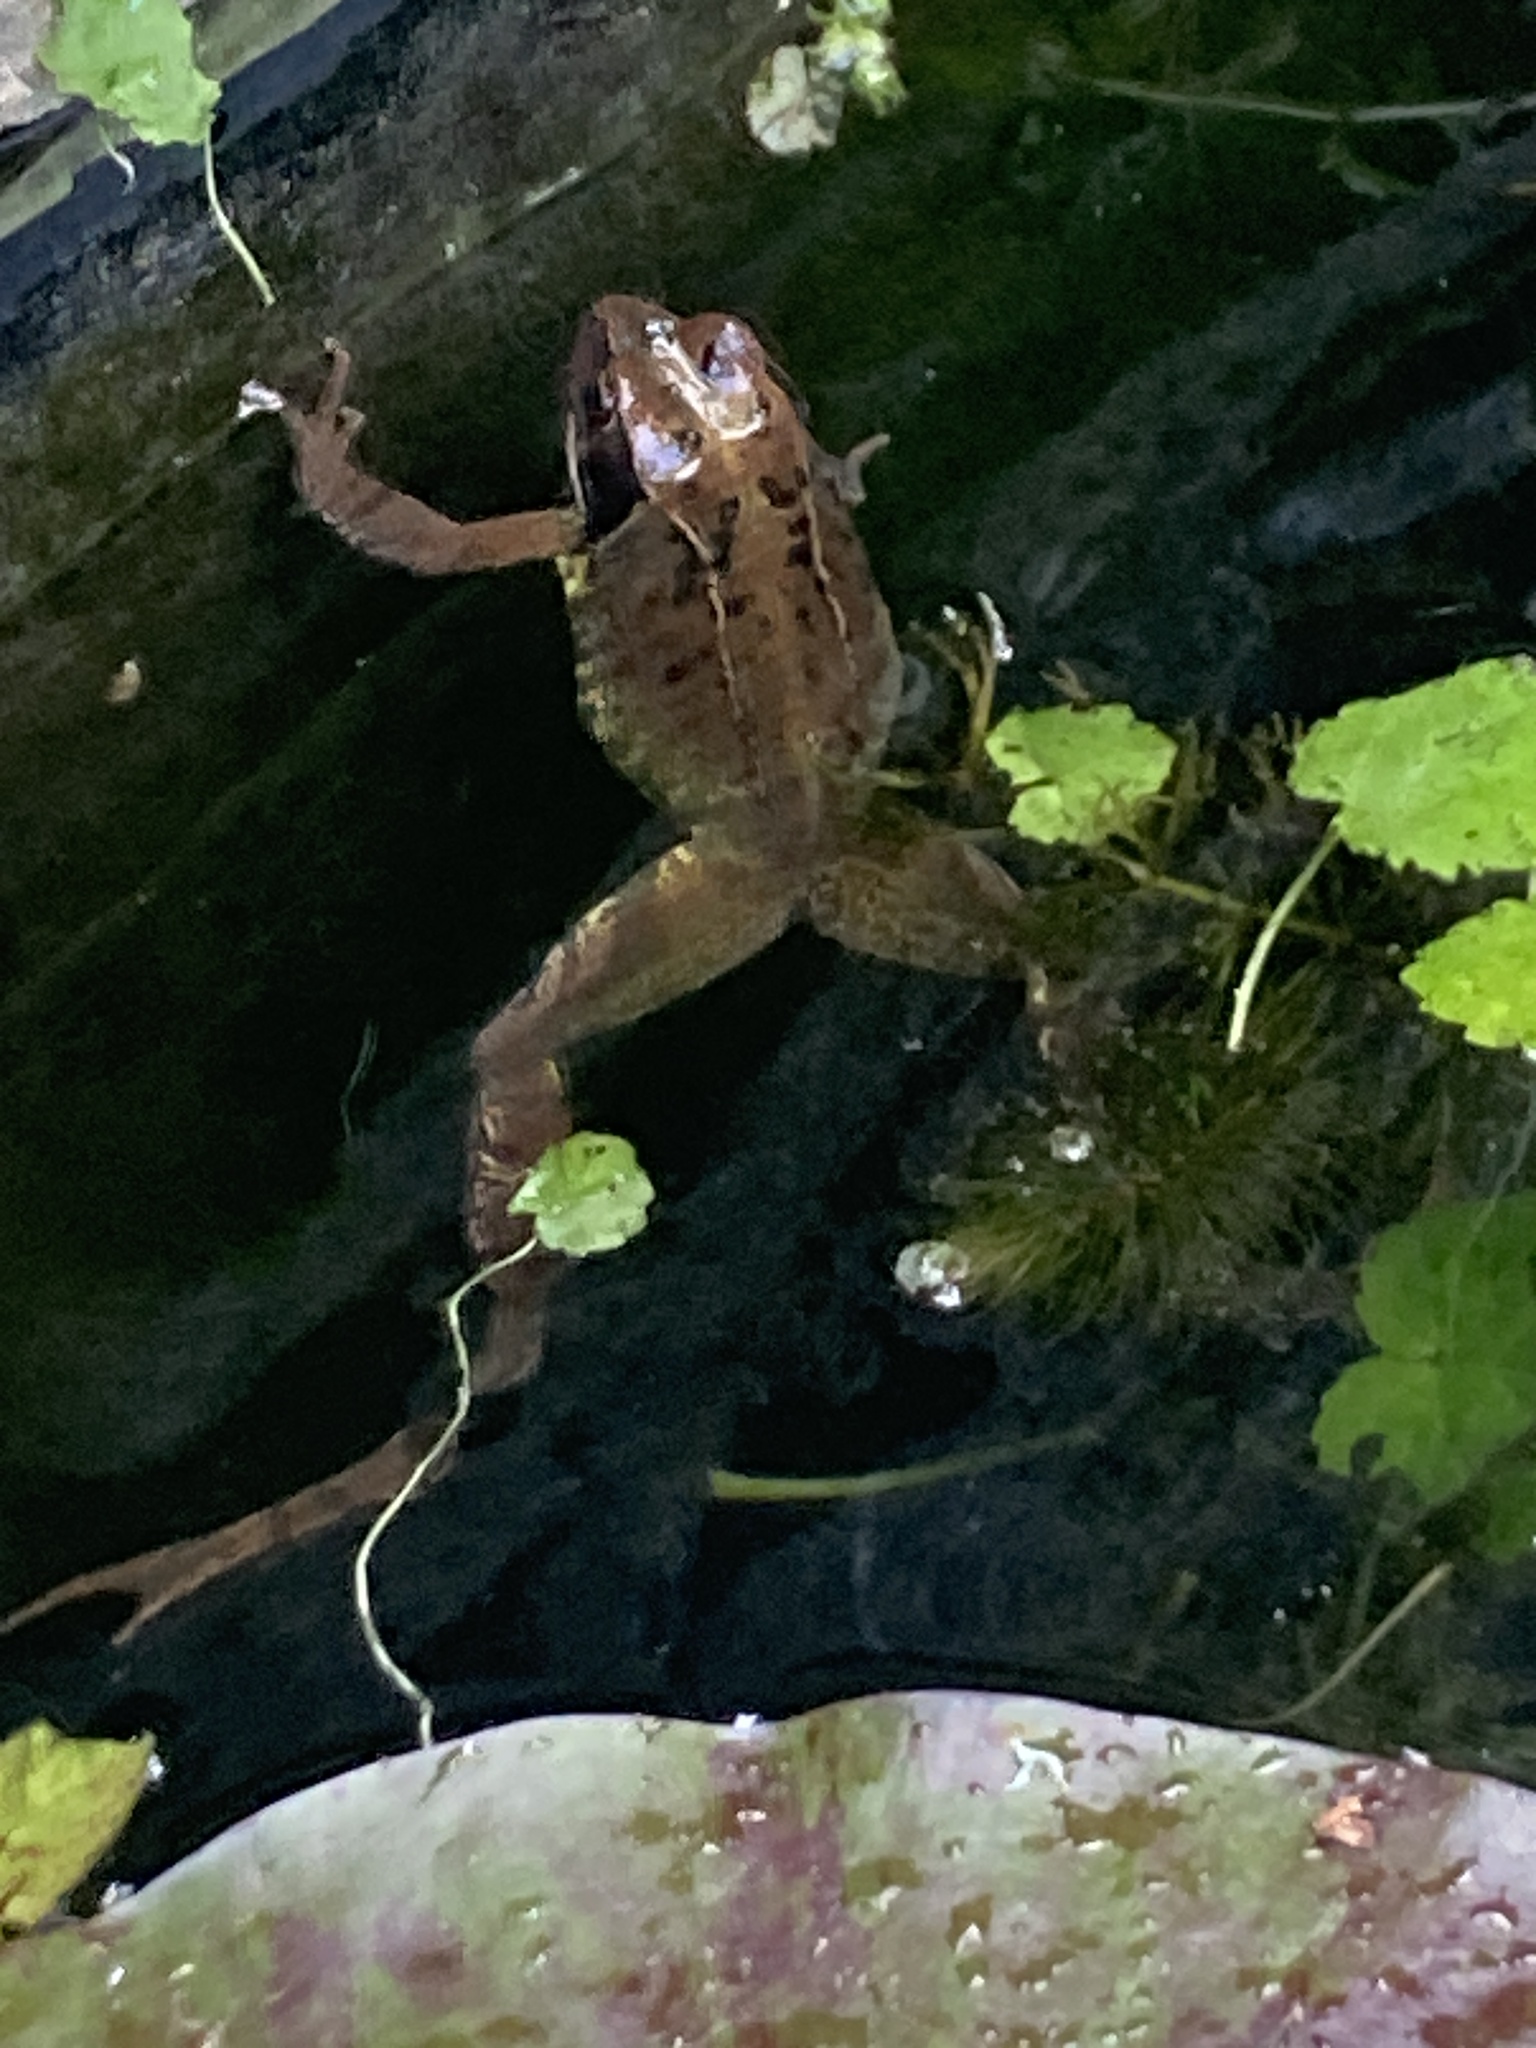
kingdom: Animalia
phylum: Chordata
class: Amphibia
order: Anura
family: Ranidae
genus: Rana
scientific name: Rana temporaria
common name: Common frog
